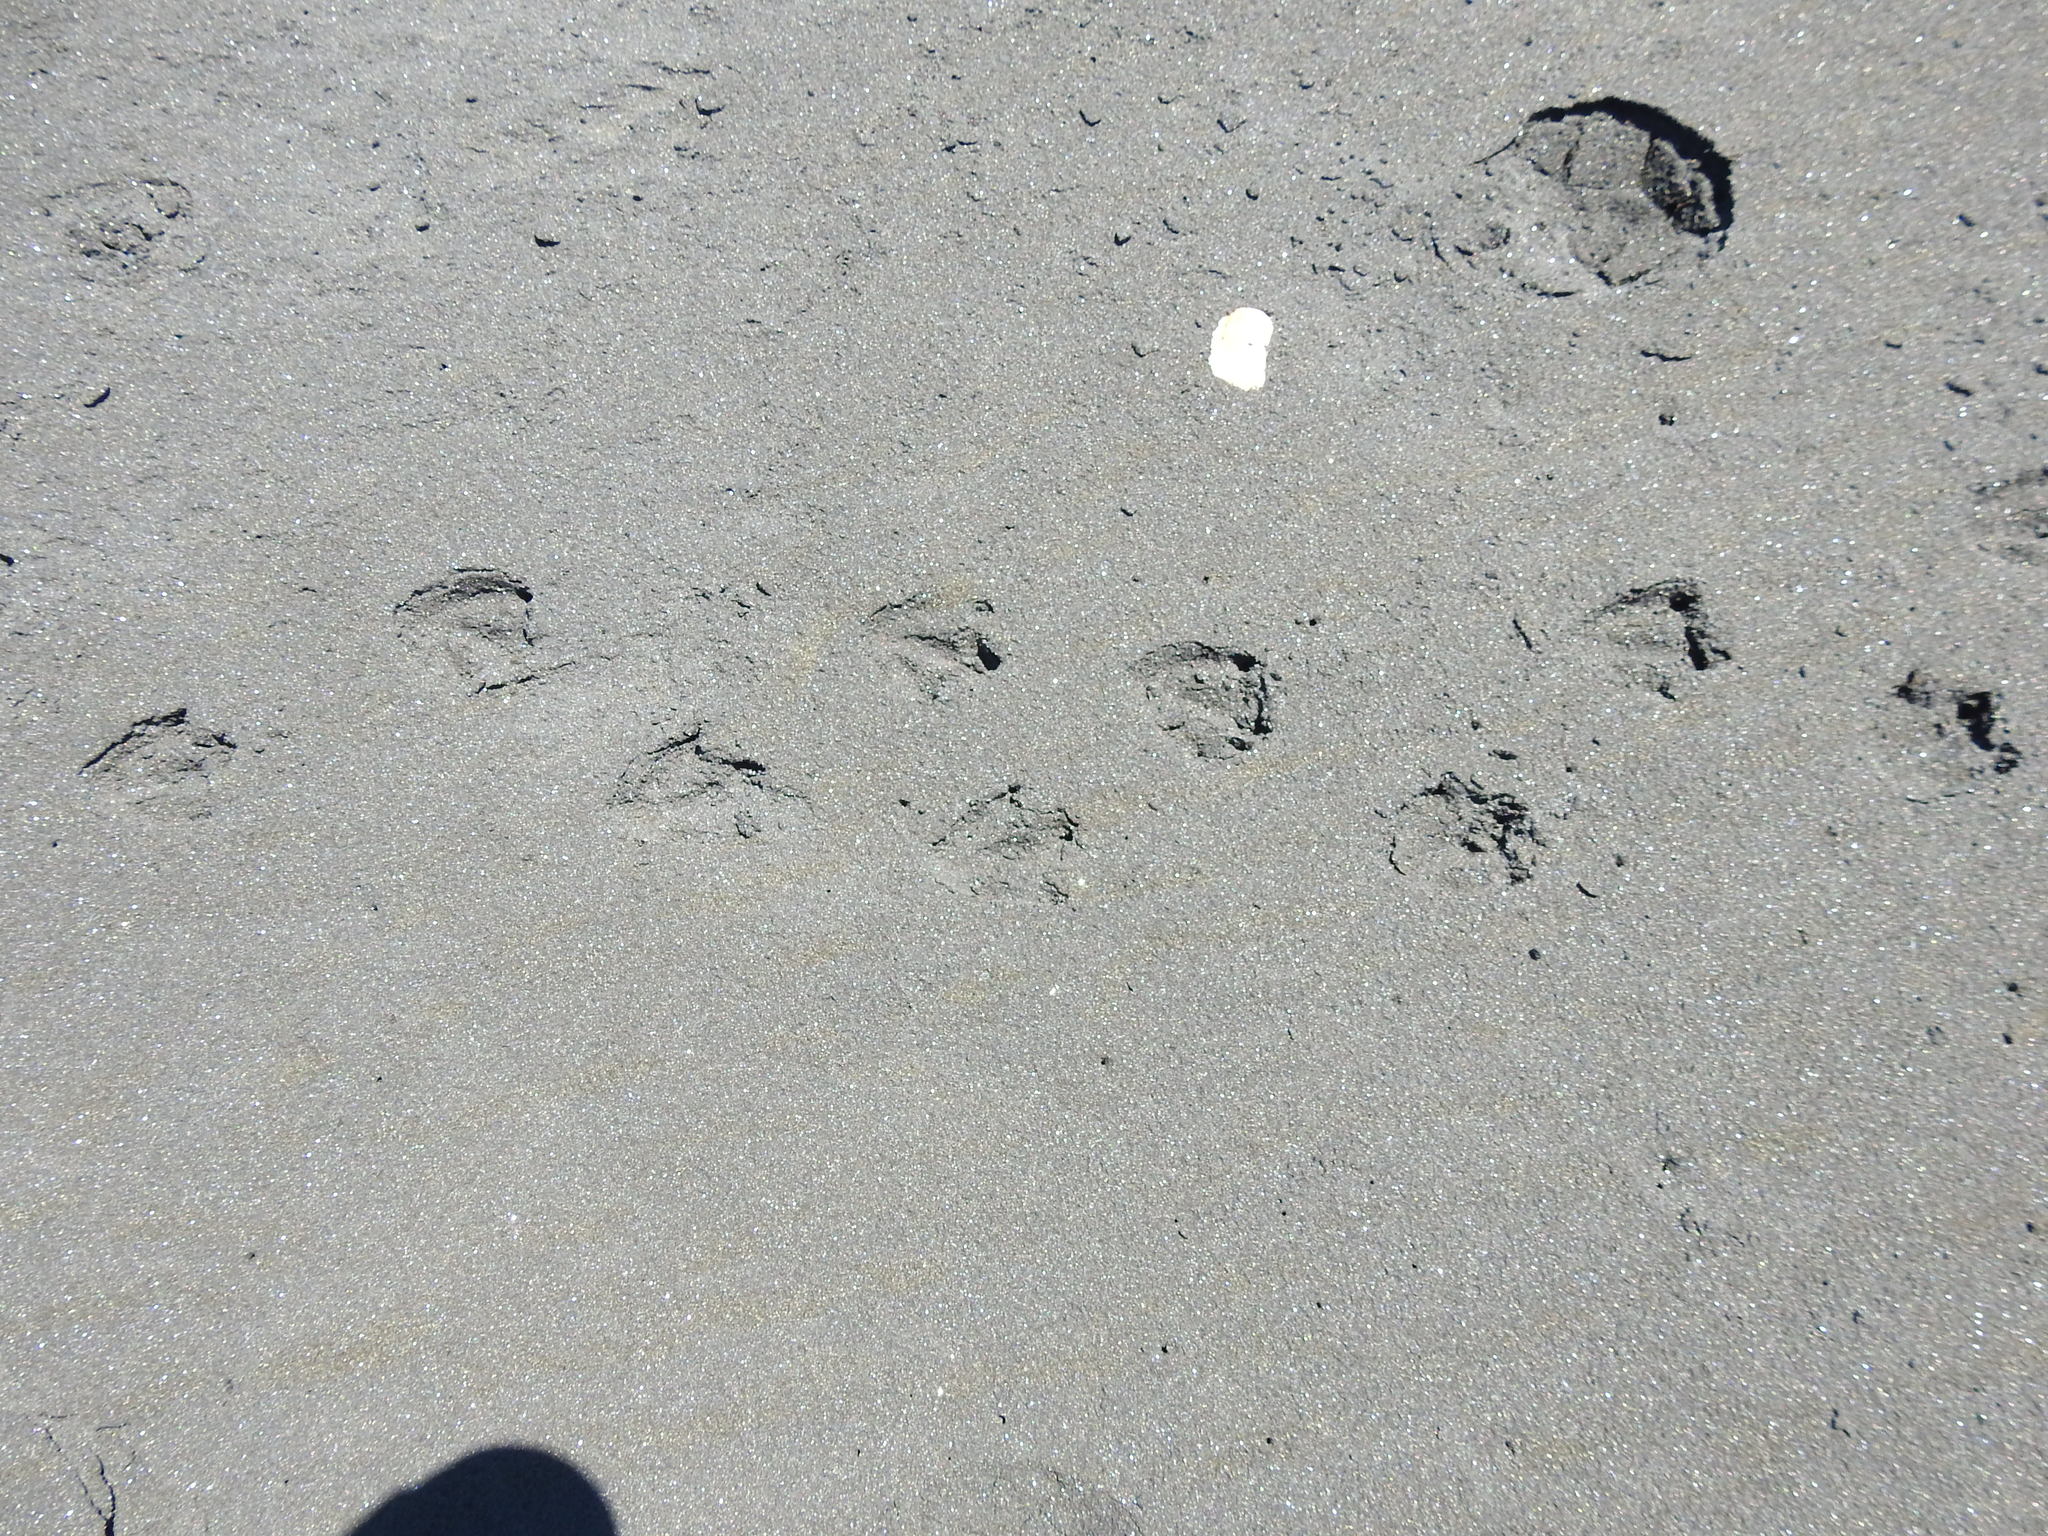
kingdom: Animalia
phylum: Chordata
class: Aves
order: Sphenisciformes
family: Spheniscidae
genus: Eudyptula
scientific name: Eudyptula minor
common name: Little penguin
